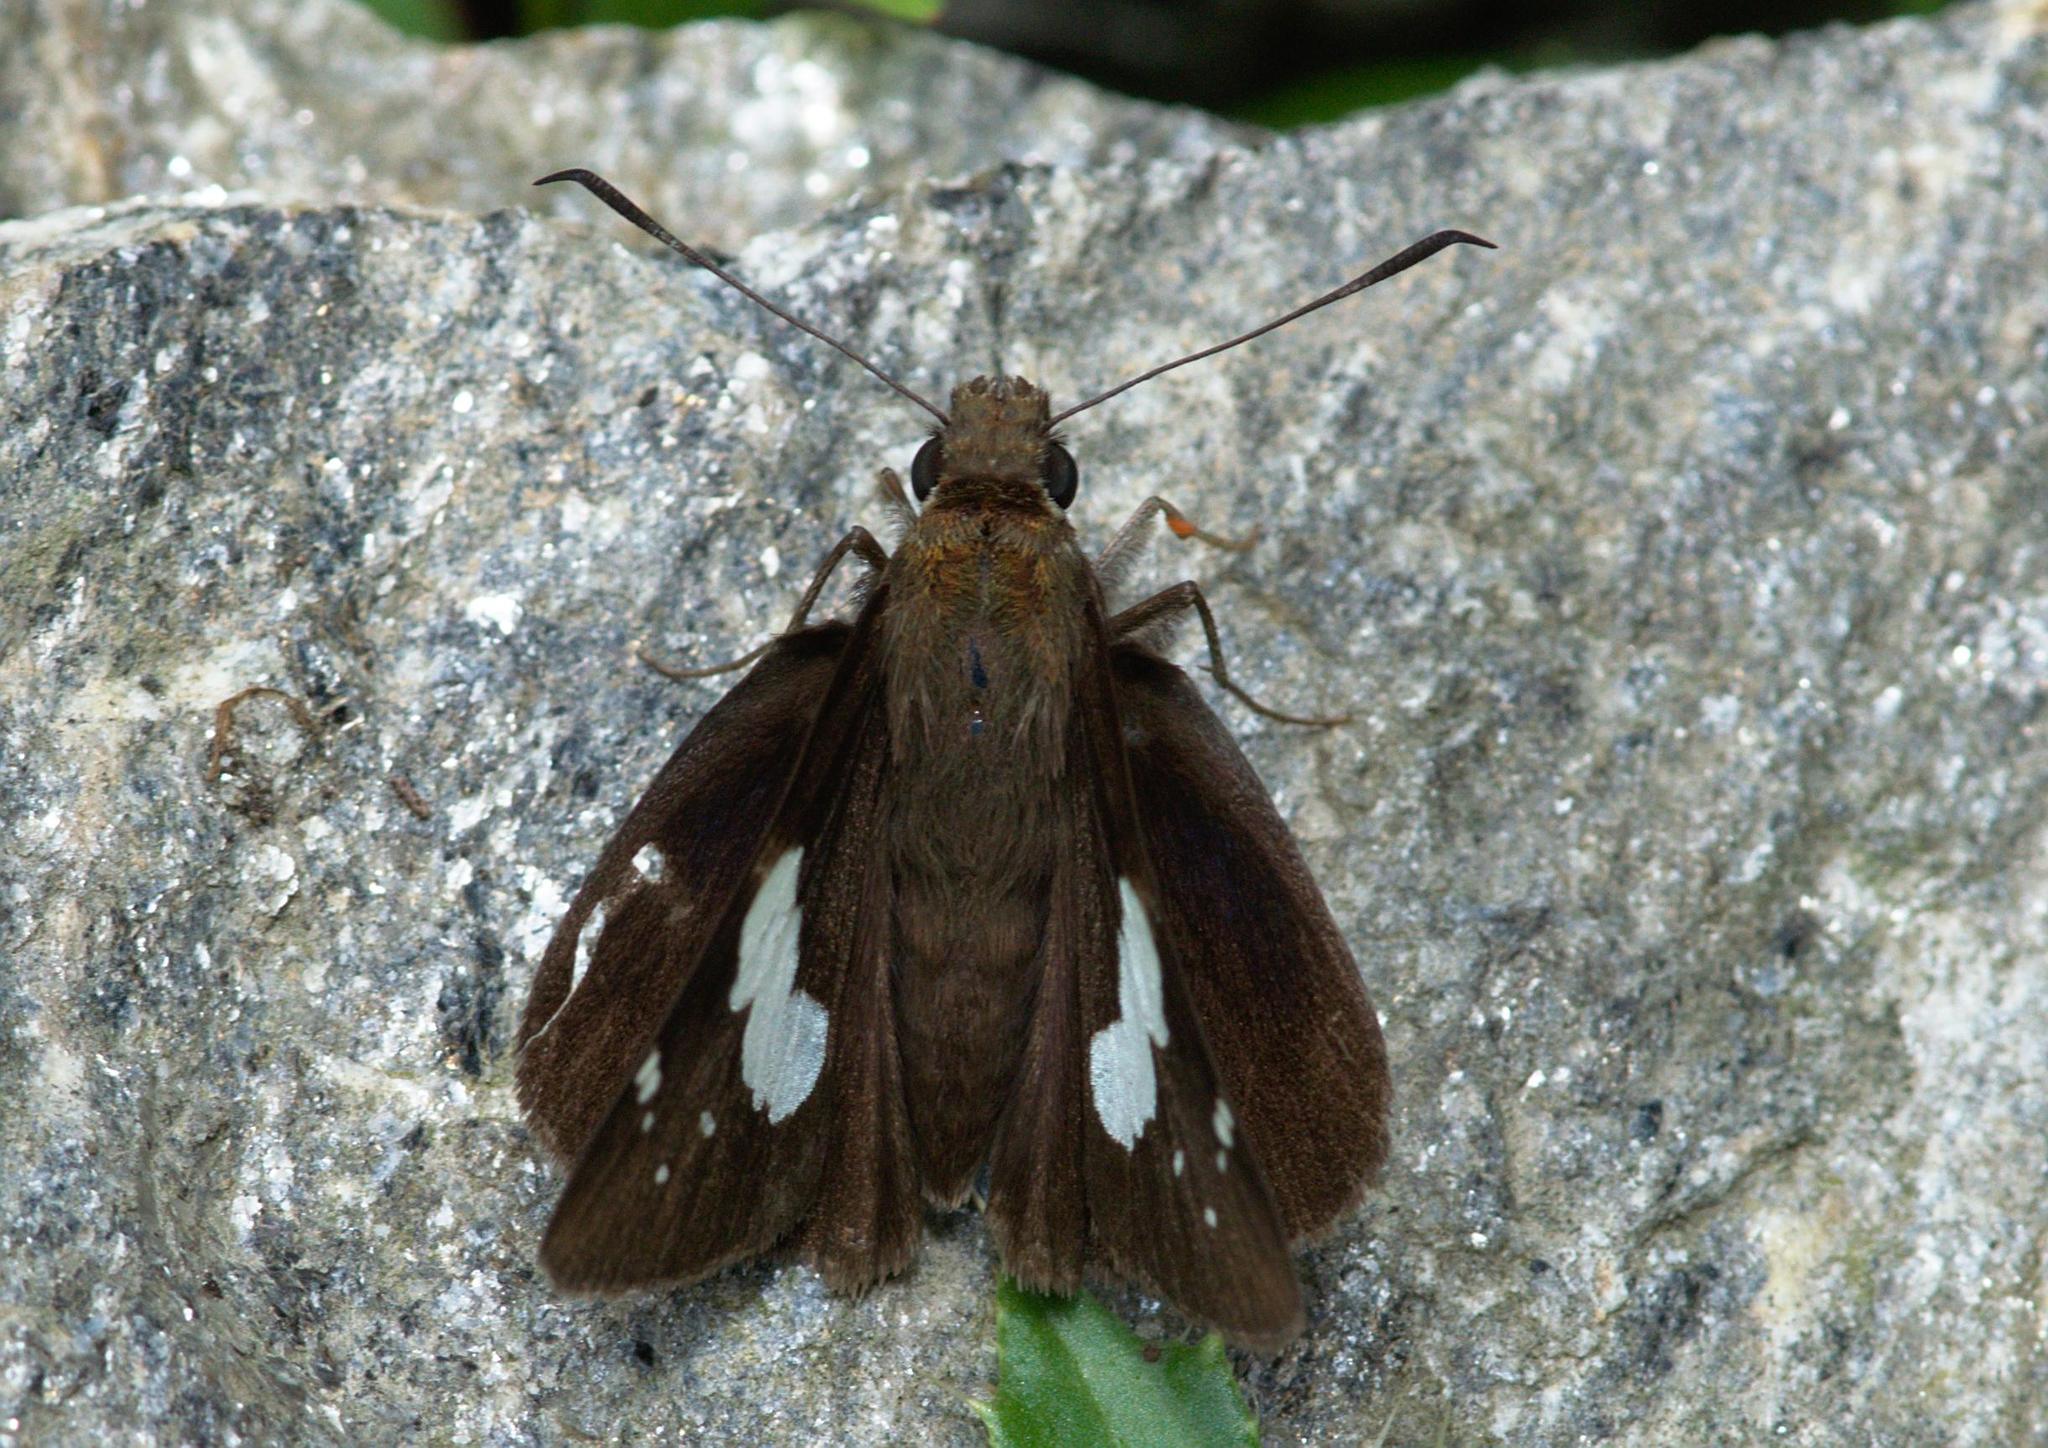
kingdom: Animalia
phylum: Arthropoda
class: Insecta
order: Lepidoptera
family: Hesperiidae
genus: Notocrypta
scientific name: Notocrypta feisthamelii
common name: Spotted demon
